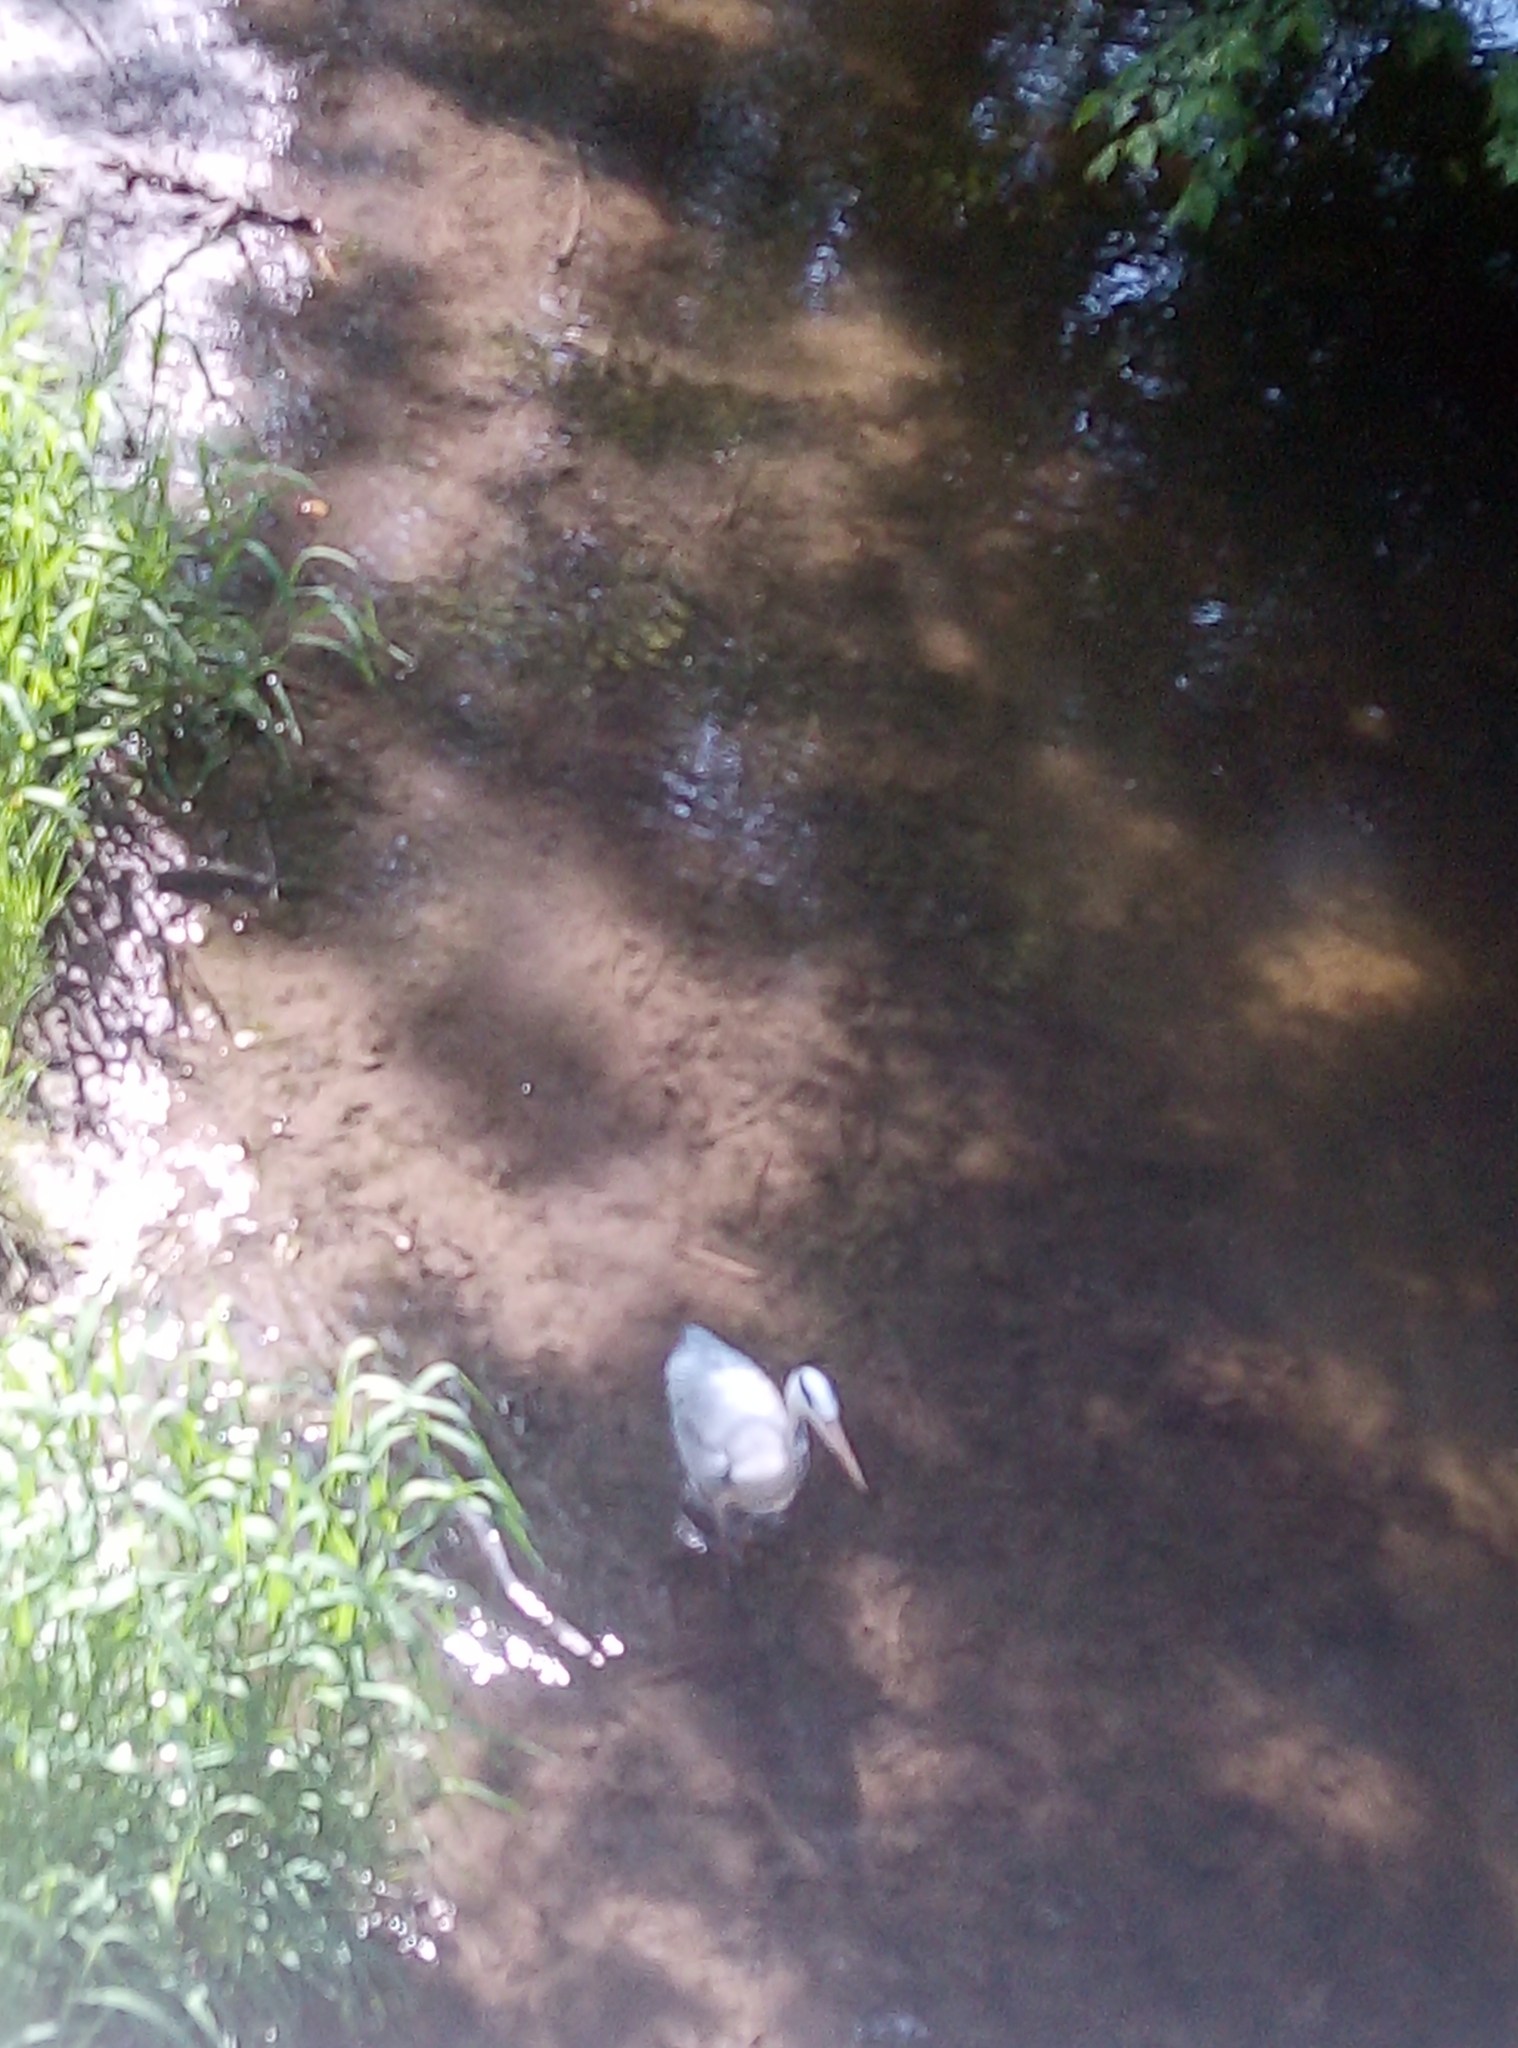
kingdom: Animalia
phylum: Chordata
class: Aves
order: Pelecaniformes
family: Ardeidae
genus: Ardea
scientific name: Ardea cinerea
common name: Grey heron
